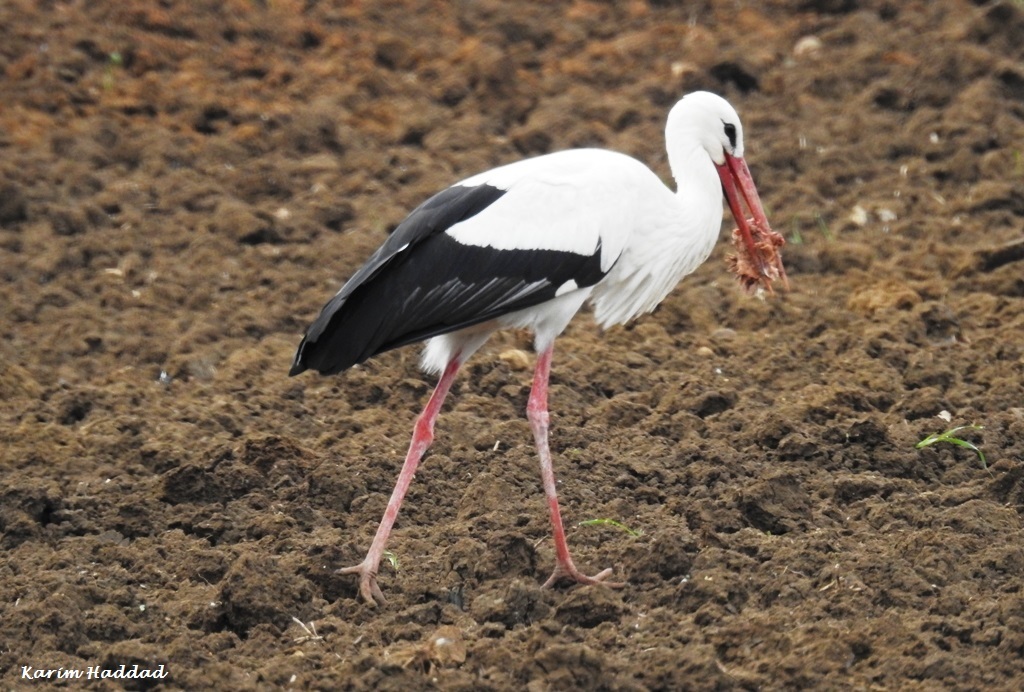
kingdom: Animalia
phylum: Chordata
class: Aves
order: Ciconiiformes
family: Ciconiidae
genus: Ciconia
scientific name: Ciconia ciconia
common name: White stork
